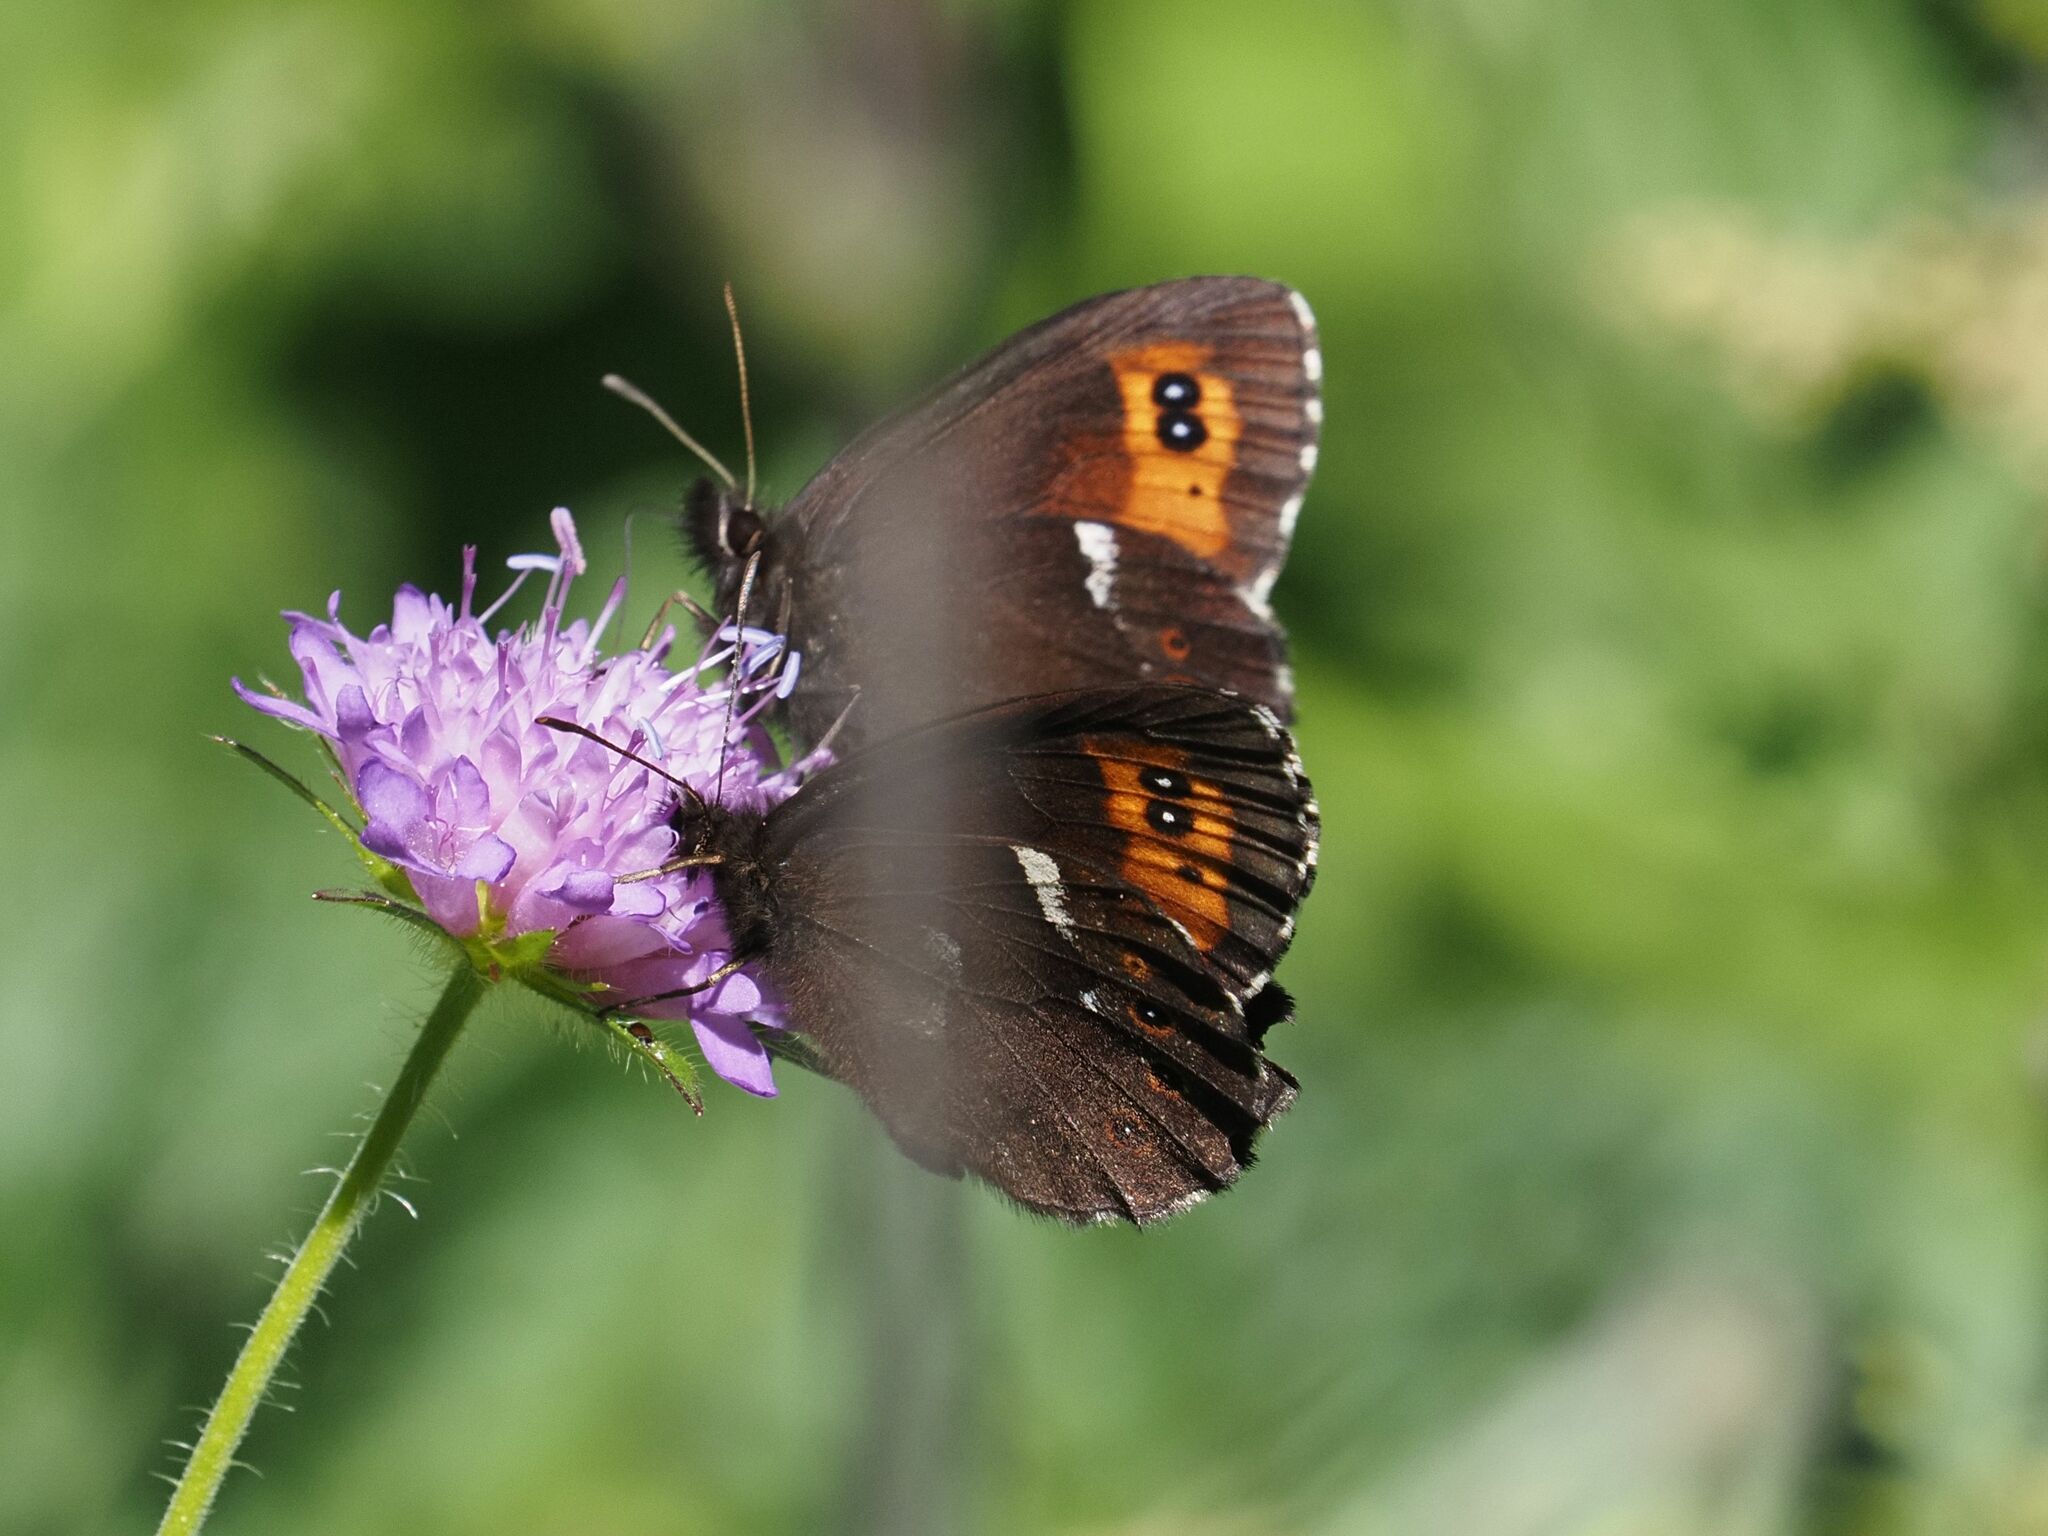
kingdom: Animalia
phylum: Arthropoda
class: Insecta
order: Lepidoptera
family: Nymphalidae
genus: Erebia
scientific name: Erebia ligea
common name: Arran brown
